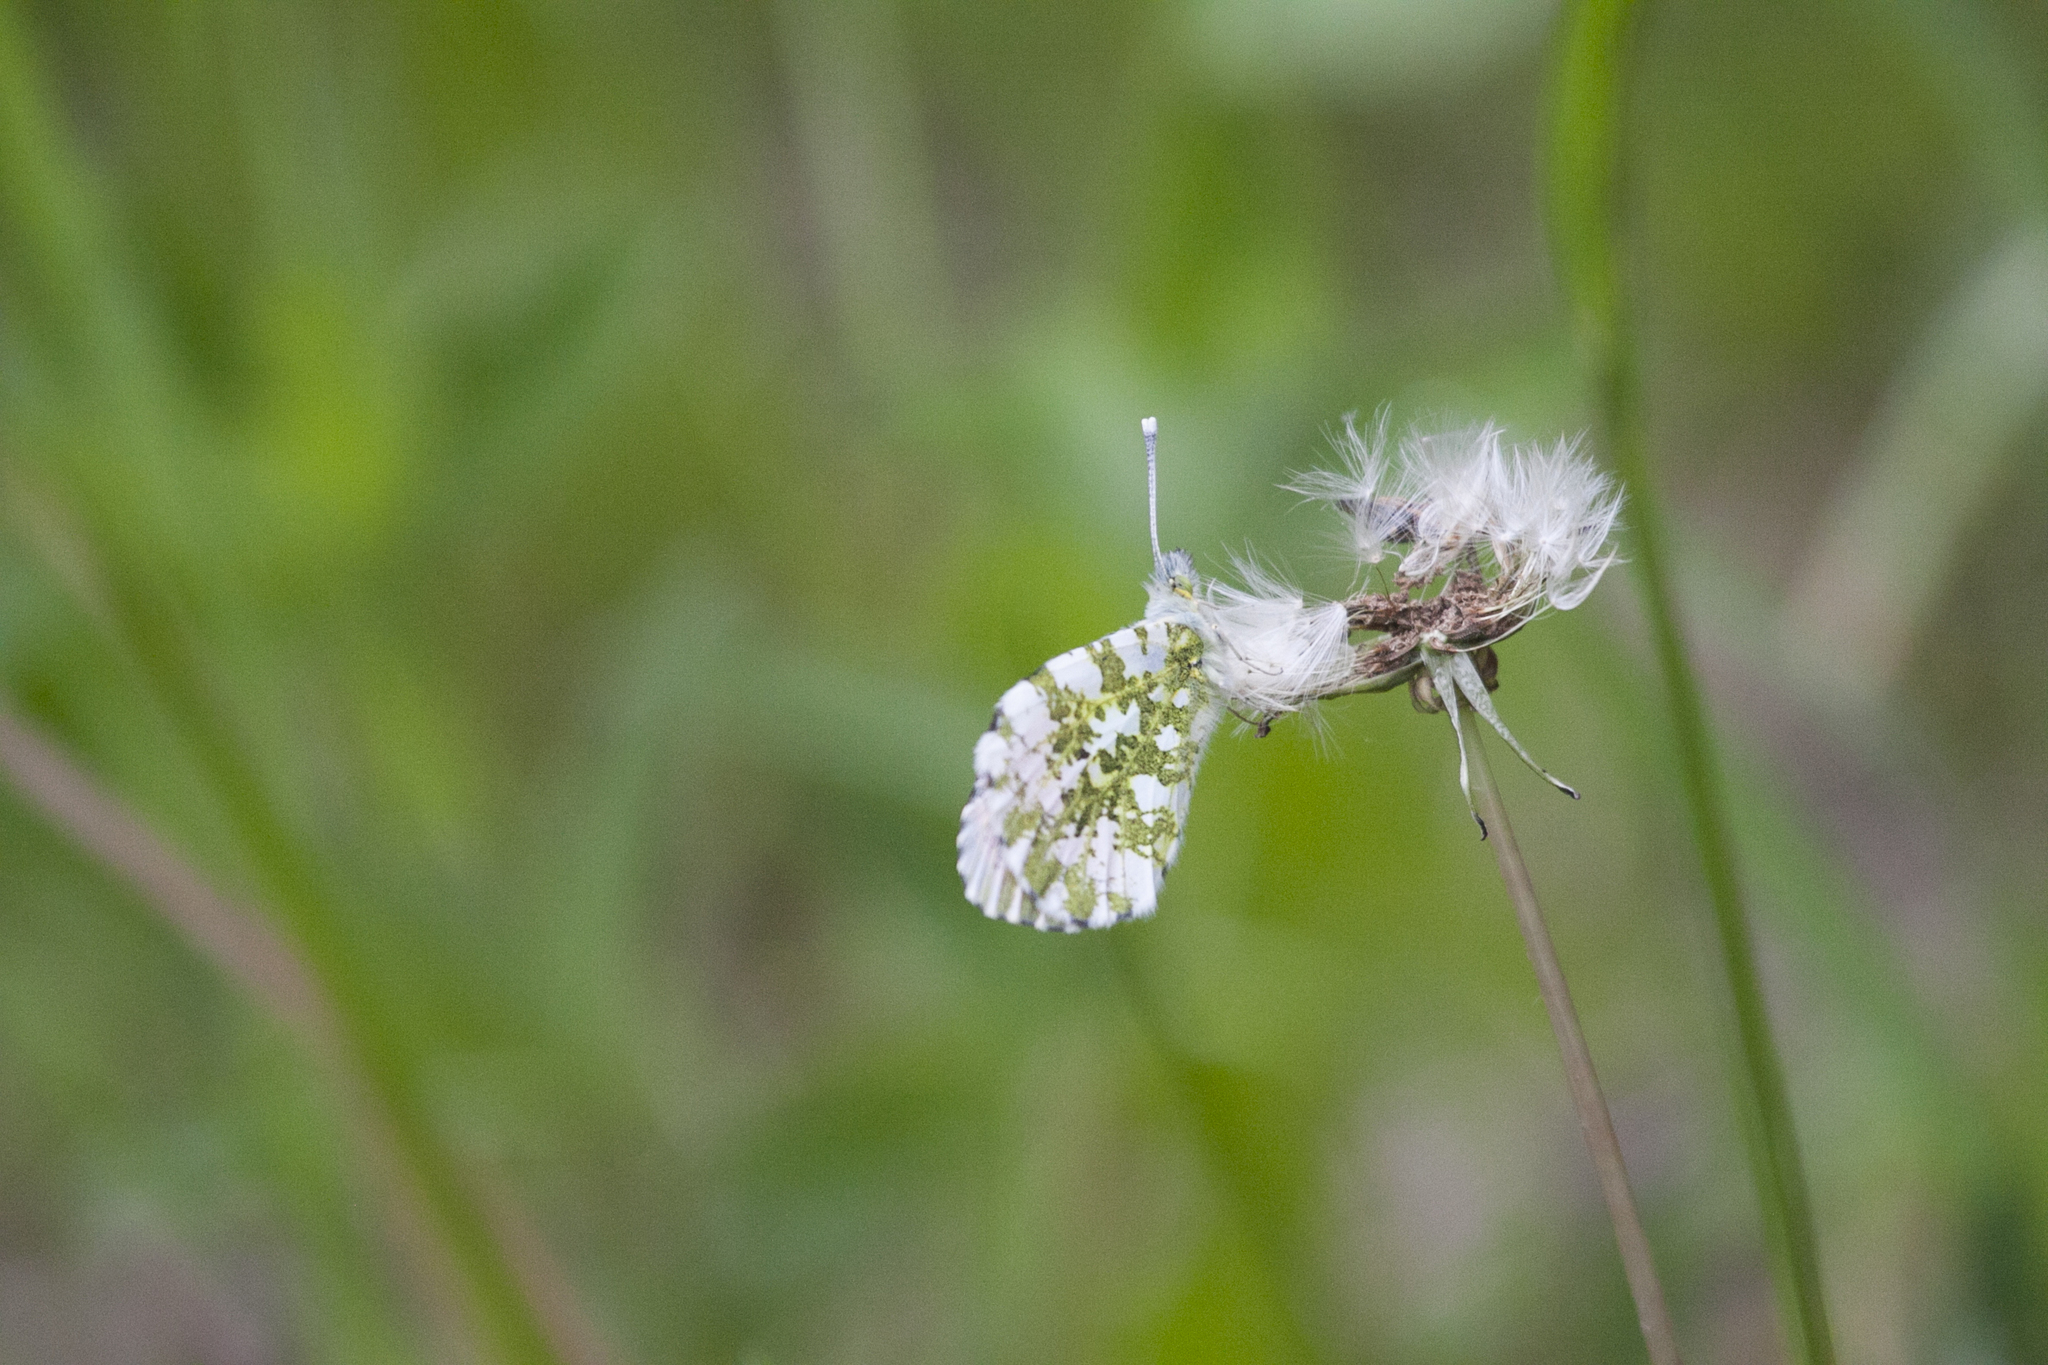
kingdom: Animalia
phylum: Arthropoda
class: Insecta
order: Lepidoptera
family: Pieridae
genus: Anthocharis
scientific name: Anthocharis cardamines
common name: Orange-tip
